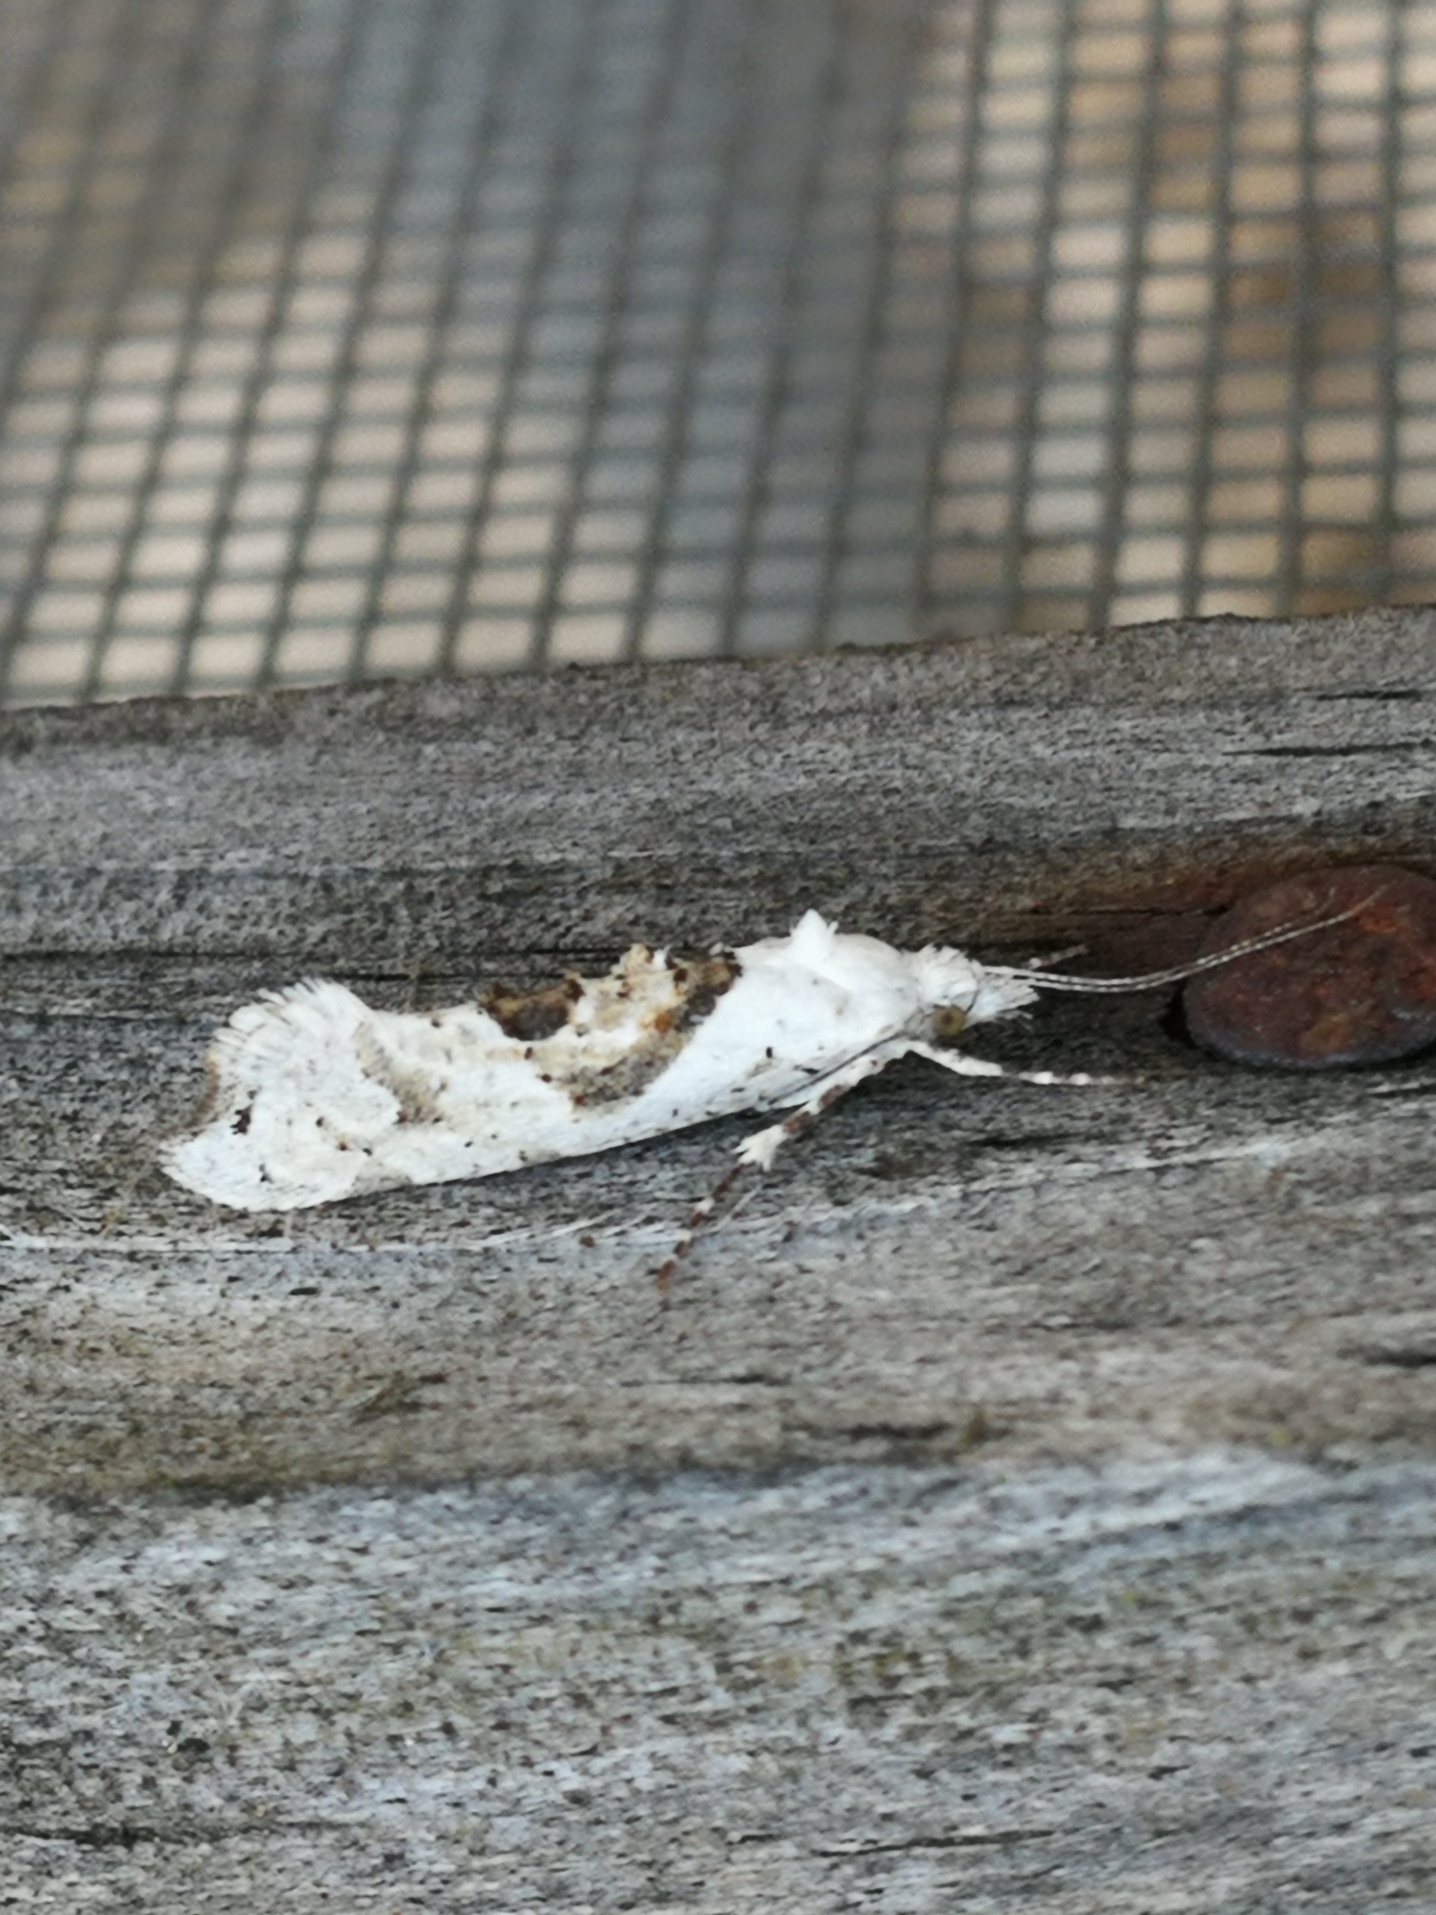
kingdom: Animalia
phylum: Arthropoda
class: Insecta
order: Lepidoptera
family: Plutellidae
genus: Ypsolophus
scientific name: Ypsolophus asperella
